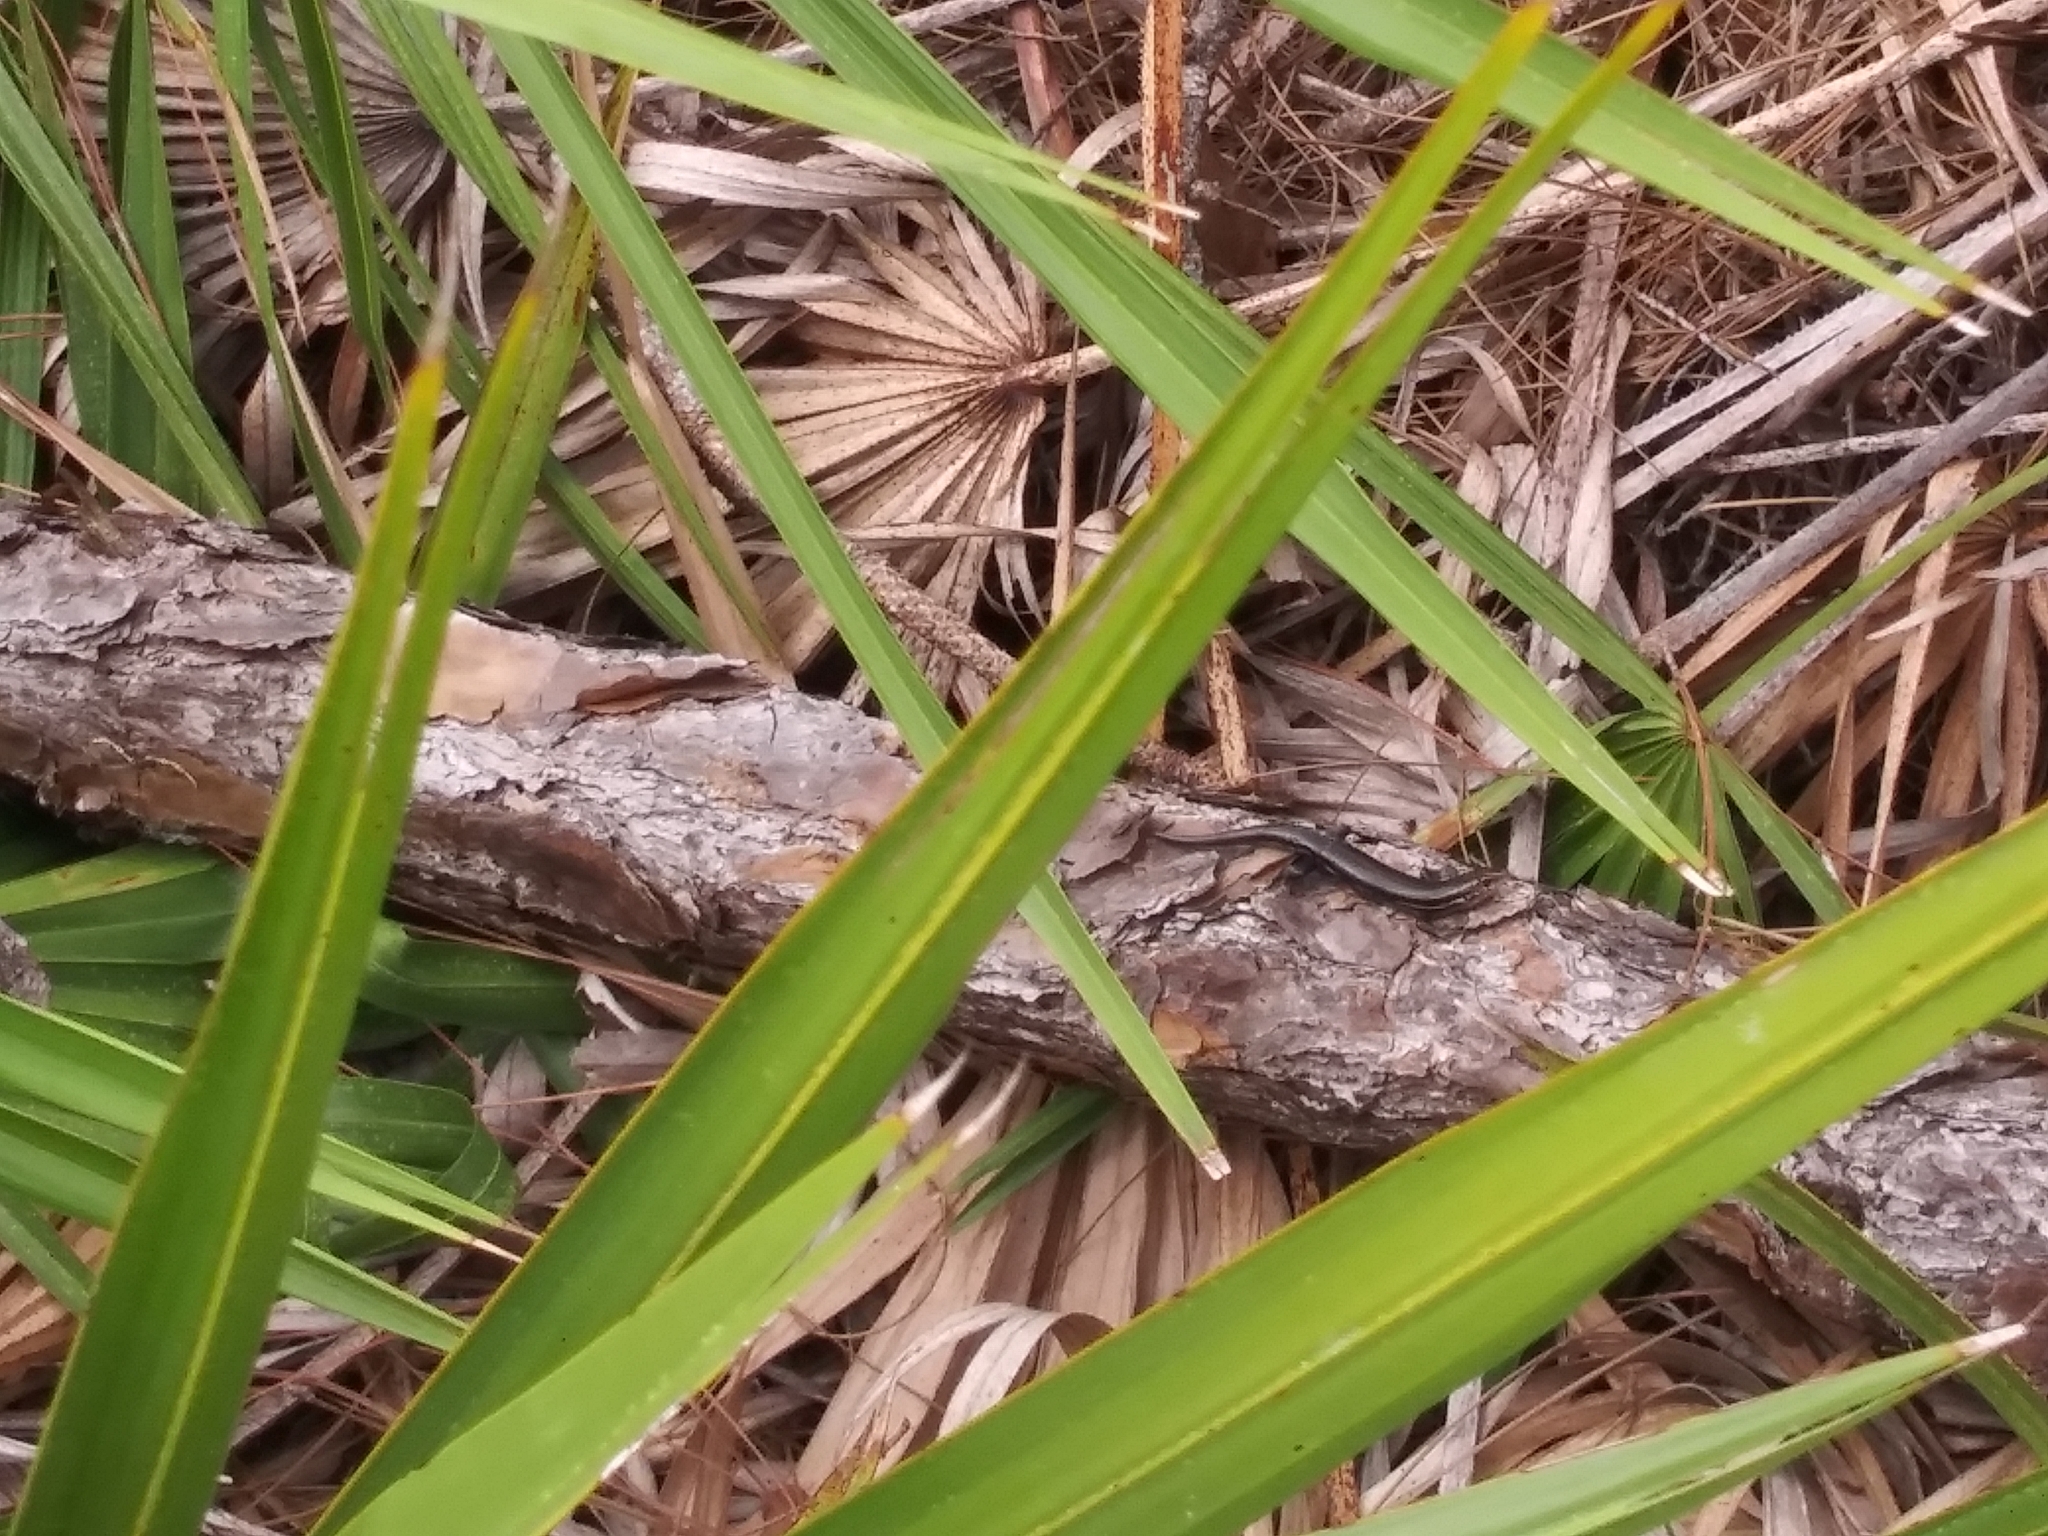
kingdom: Animalia
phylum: Chordata
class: Squamata
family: Scincidae
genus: Plestiodon
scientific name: Plestiodon inexpectatus
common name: Southeastern five-lined skink
